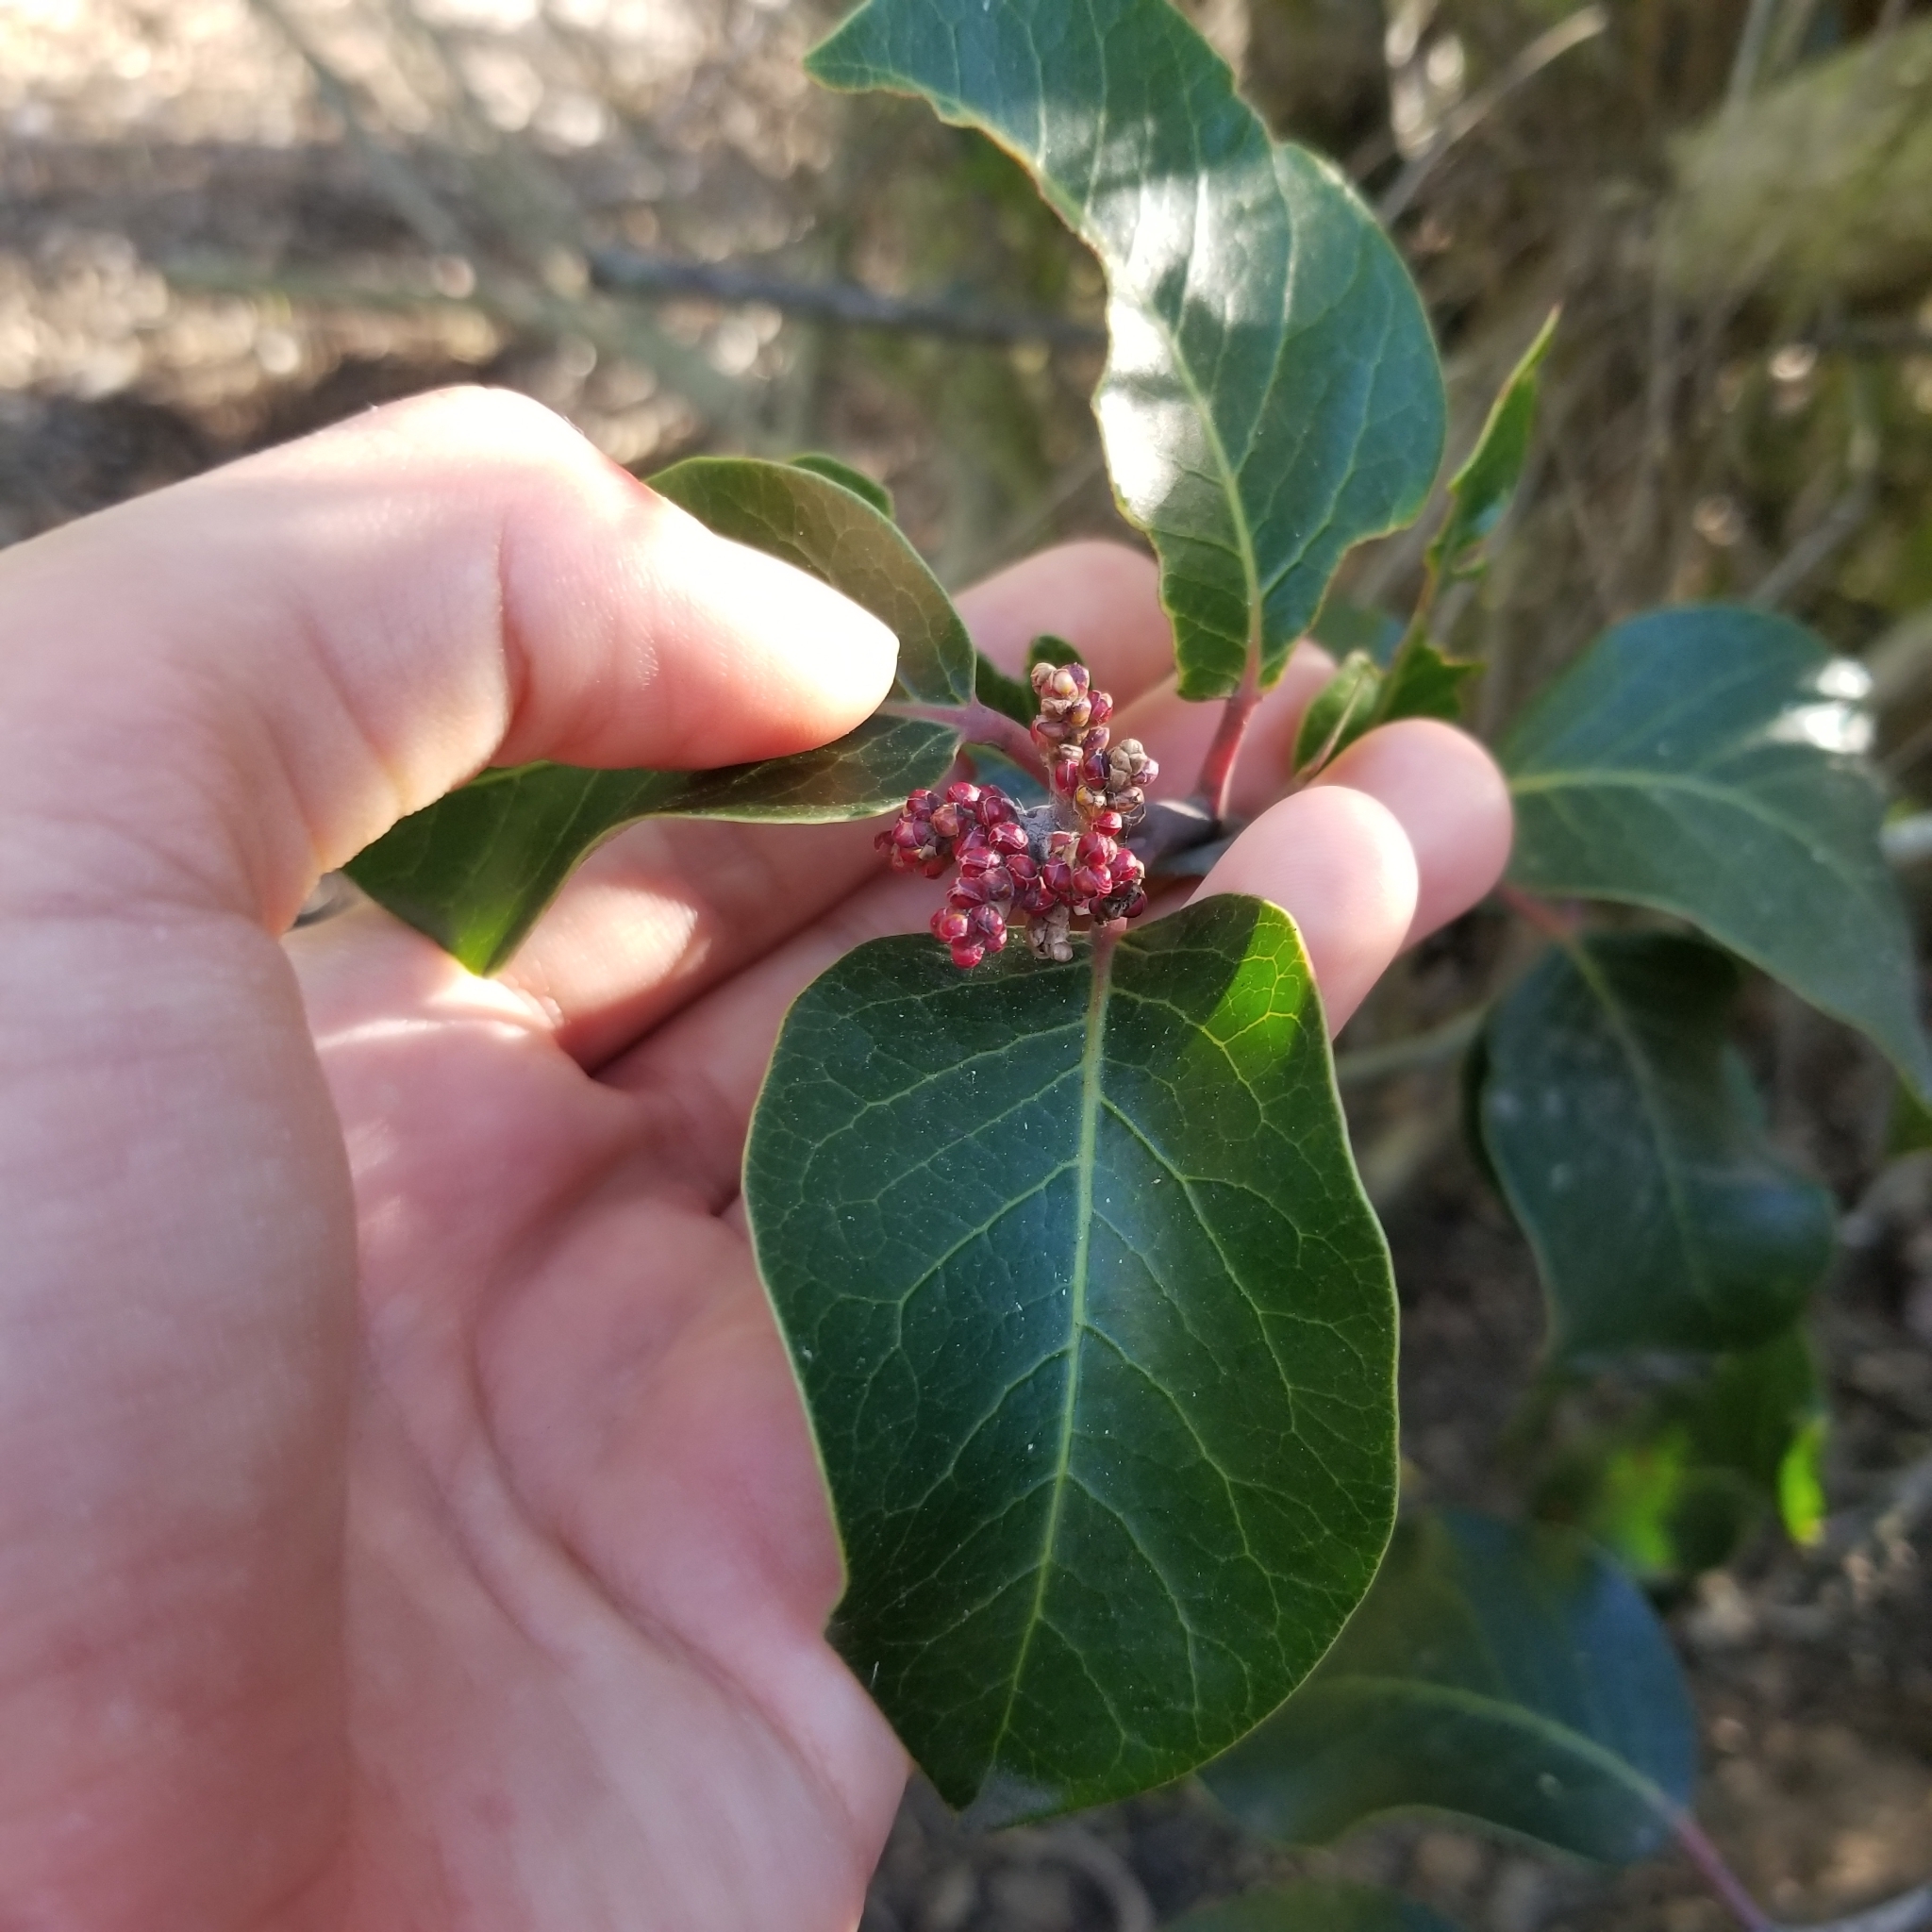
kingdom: Plantae
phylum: Tracheophyta
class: Magnoliopsida
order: Sapindales
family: Anacardiaceae
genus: Rhus
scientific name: Rhus ovata
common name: Sugar sumac
